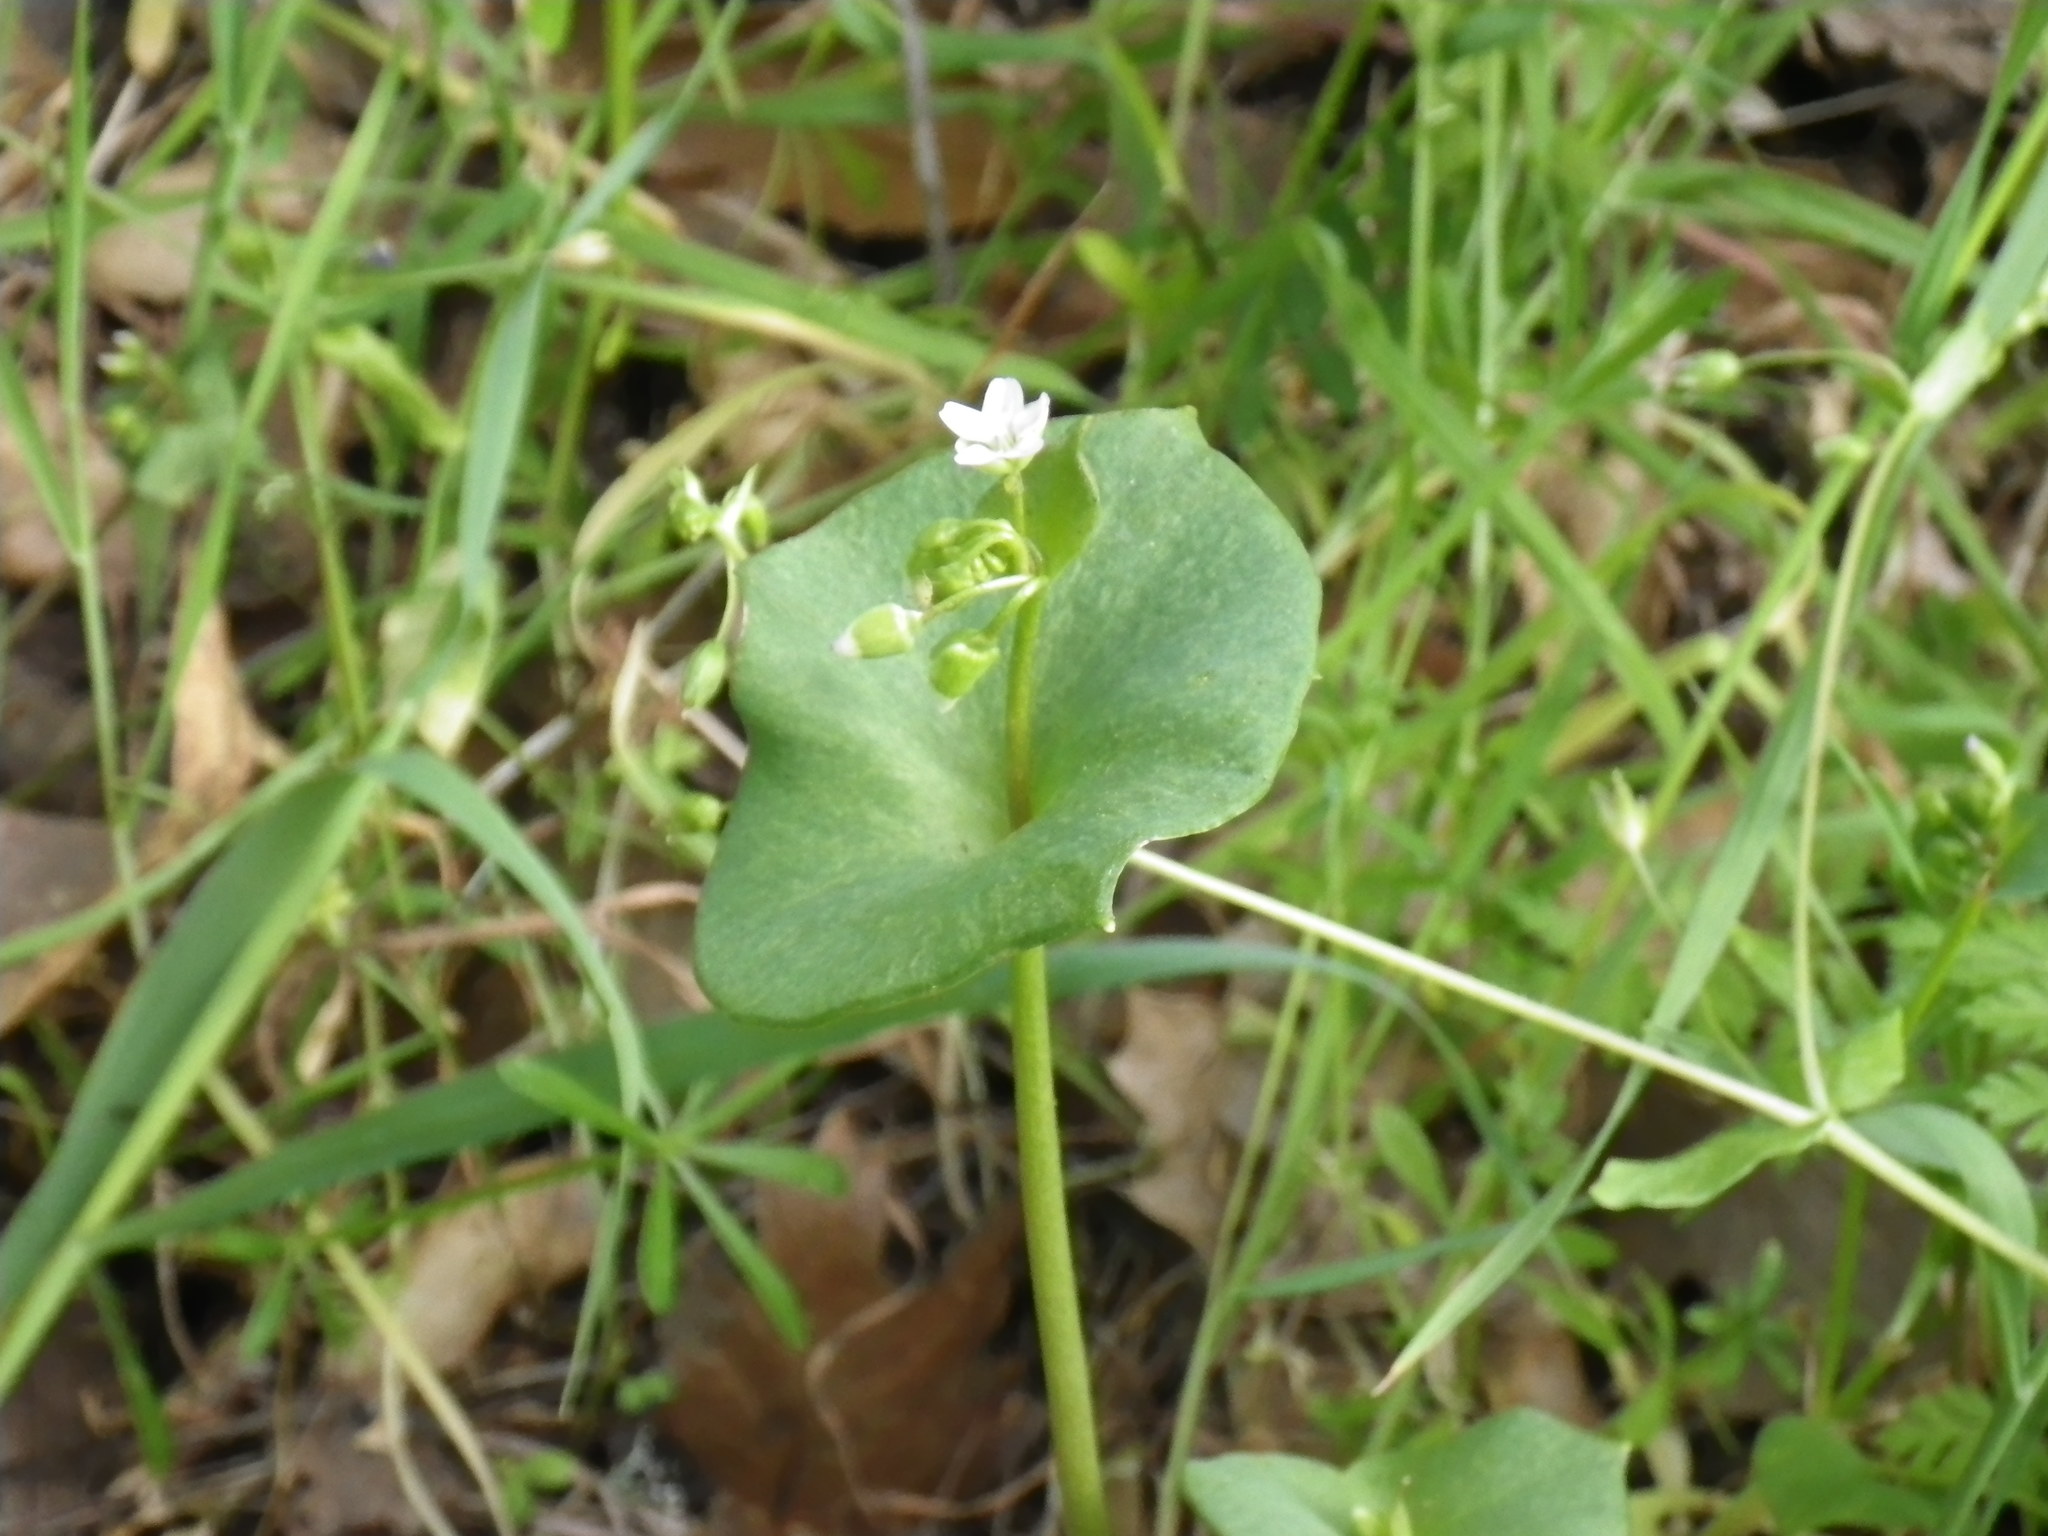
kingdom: Plantae
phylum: Tracheophyta
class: Magnoliopsida
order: Caryophyllales
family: Montiaceae
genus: Claytonia
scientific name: Claytonia perfoliata
